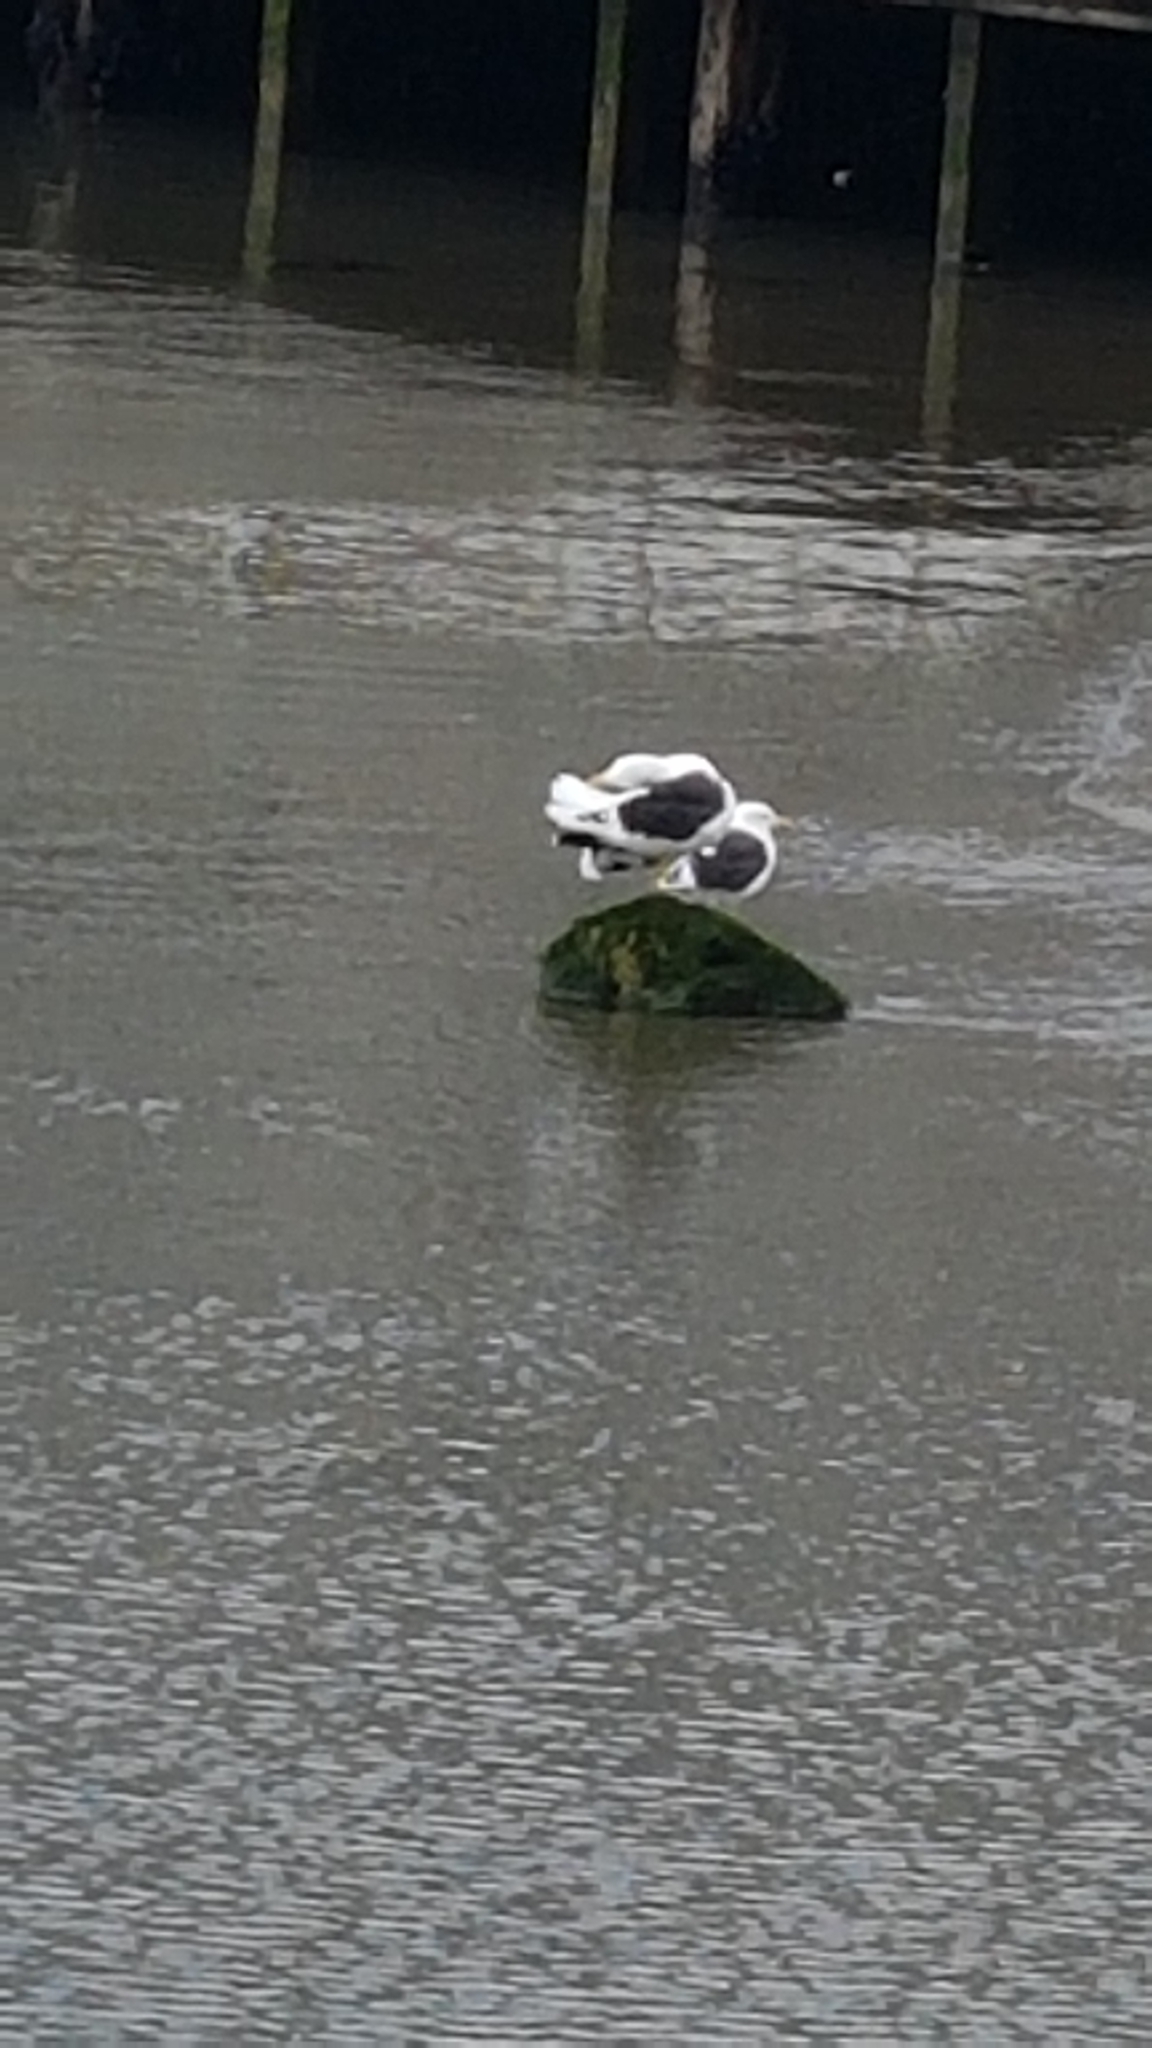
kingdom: Animalia
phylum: Chordata
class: Aves
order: Charadriiformes
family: Laridae
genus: Larus
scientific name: Larus dominicanus
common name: Kelp gull
